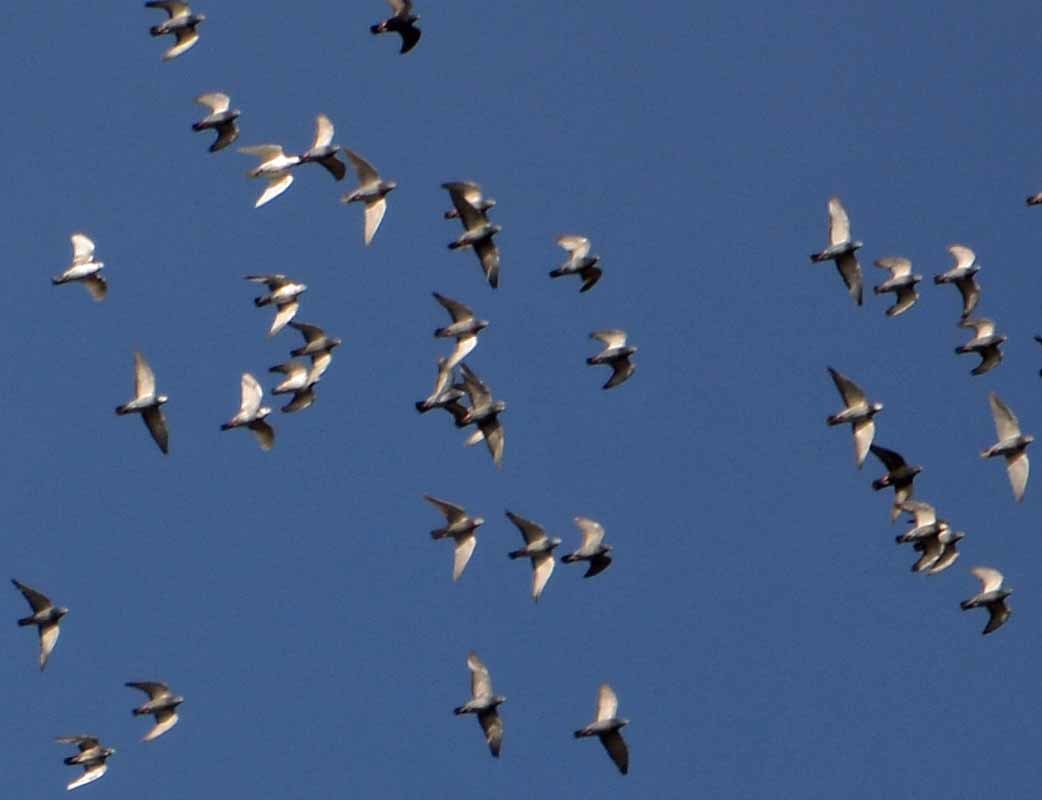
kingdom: Animalia
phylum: Chordata
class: Aves
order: Columbiformes
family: Columbidae
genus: Columba
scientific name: Columba livia
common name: Rock pigeon
